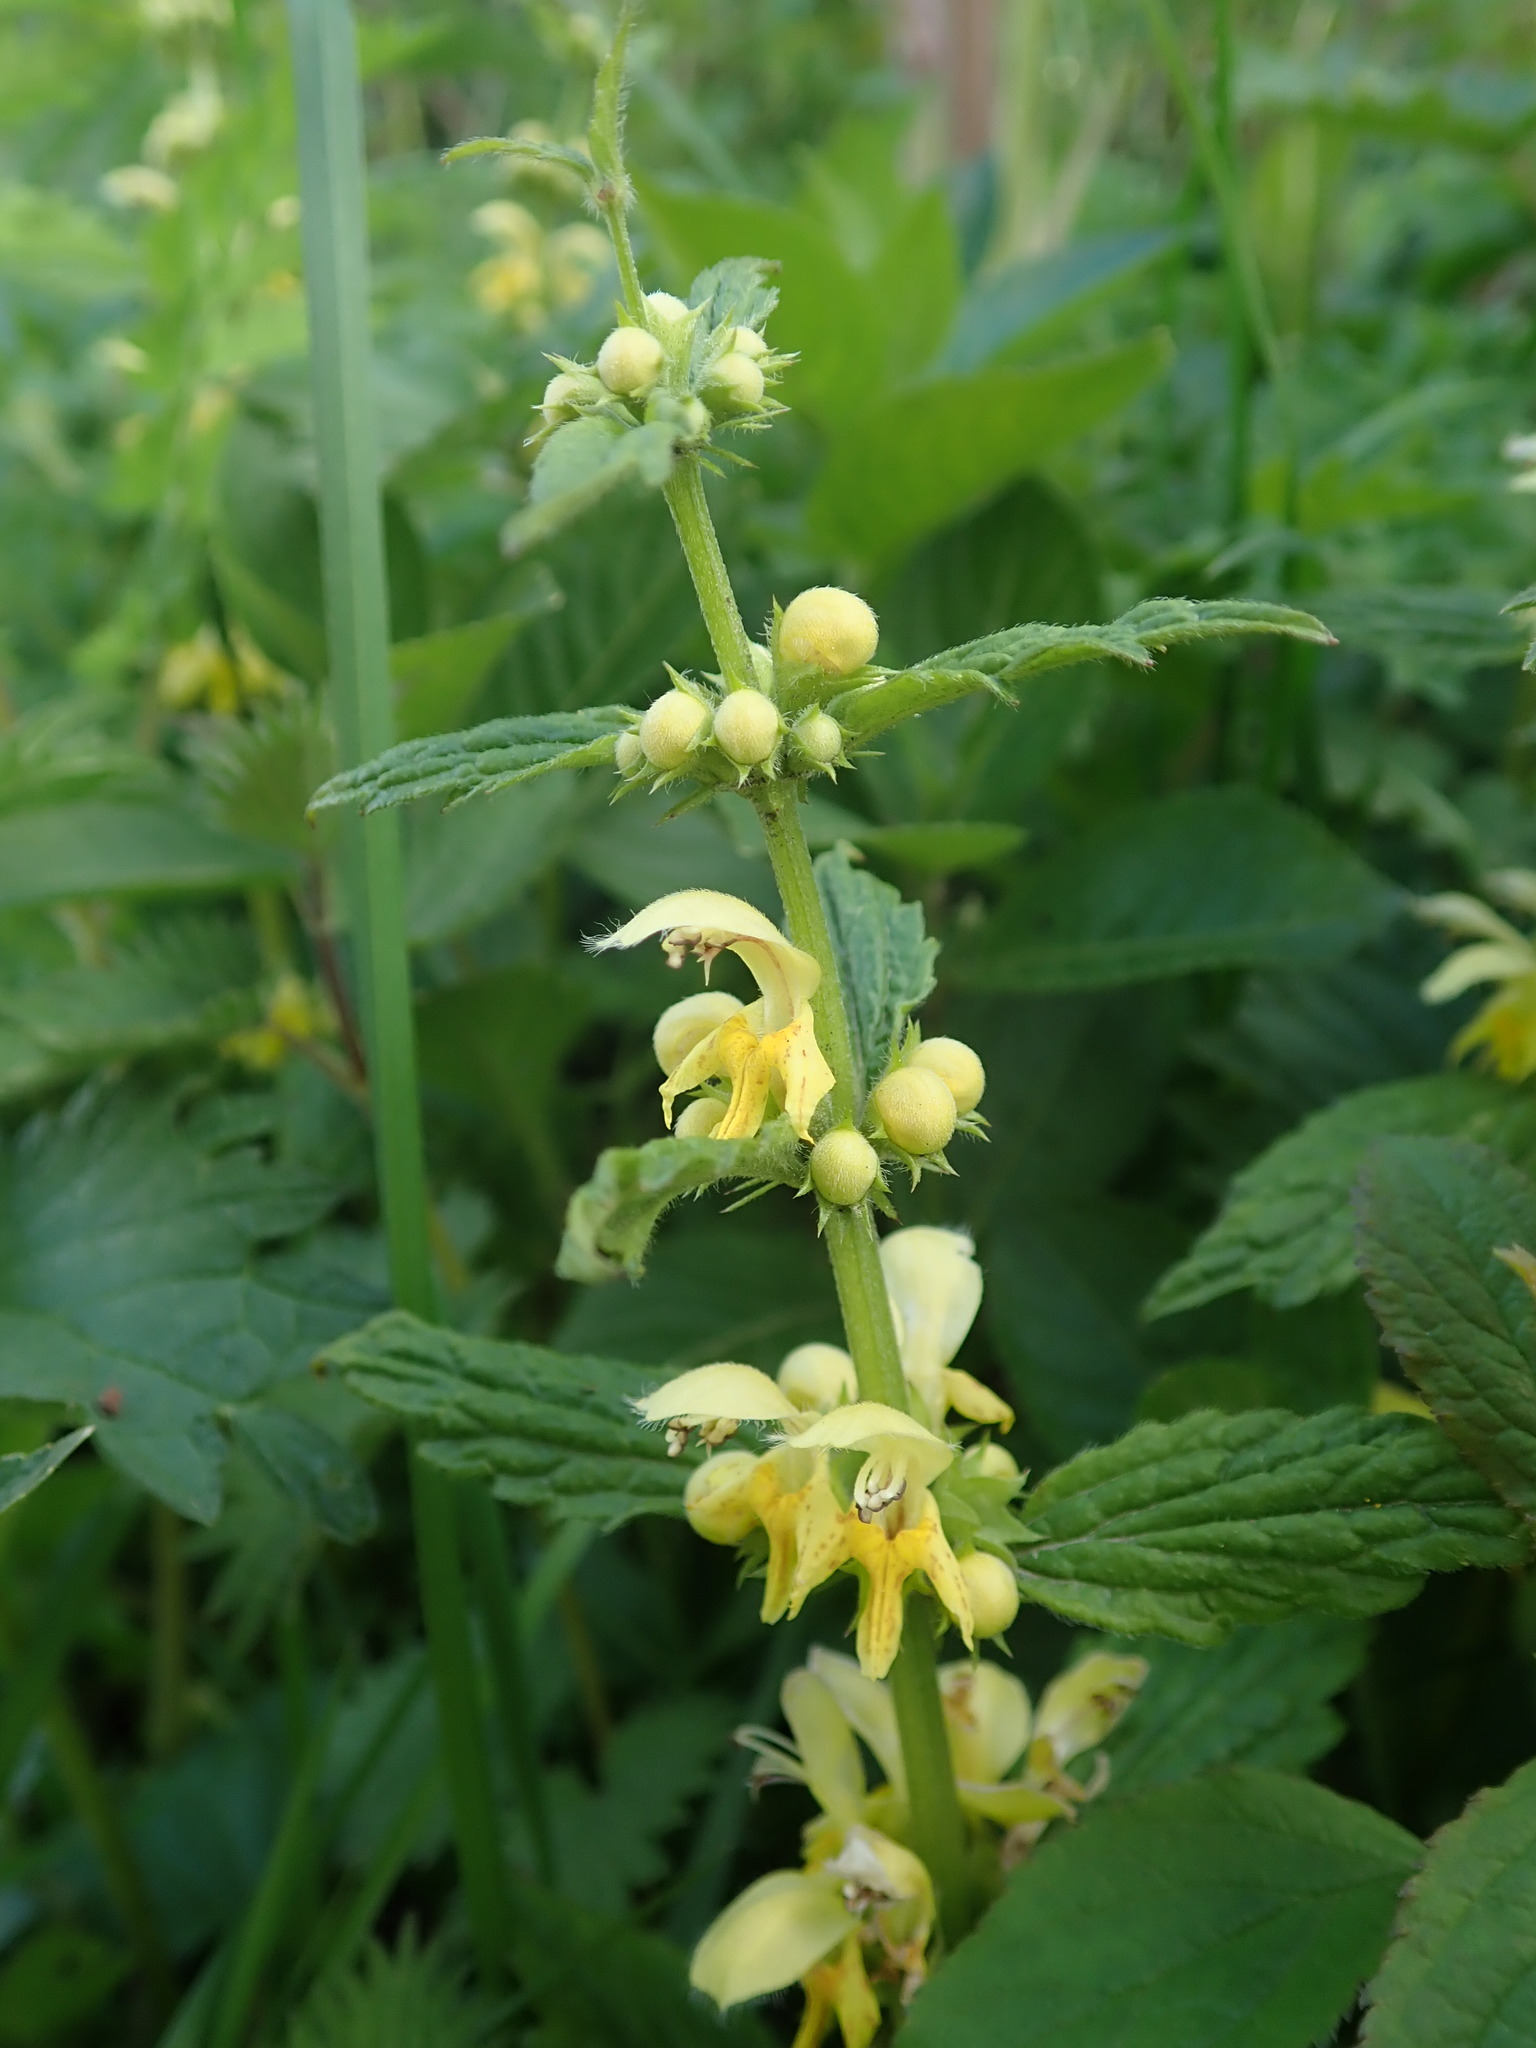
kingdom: Plantae
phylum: Tracheophyta
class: Magnoliopsida
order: Lamiales
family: Lamiaceae
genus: Lamium
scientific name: Lamium galeobdolon
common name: Yellow archangel
